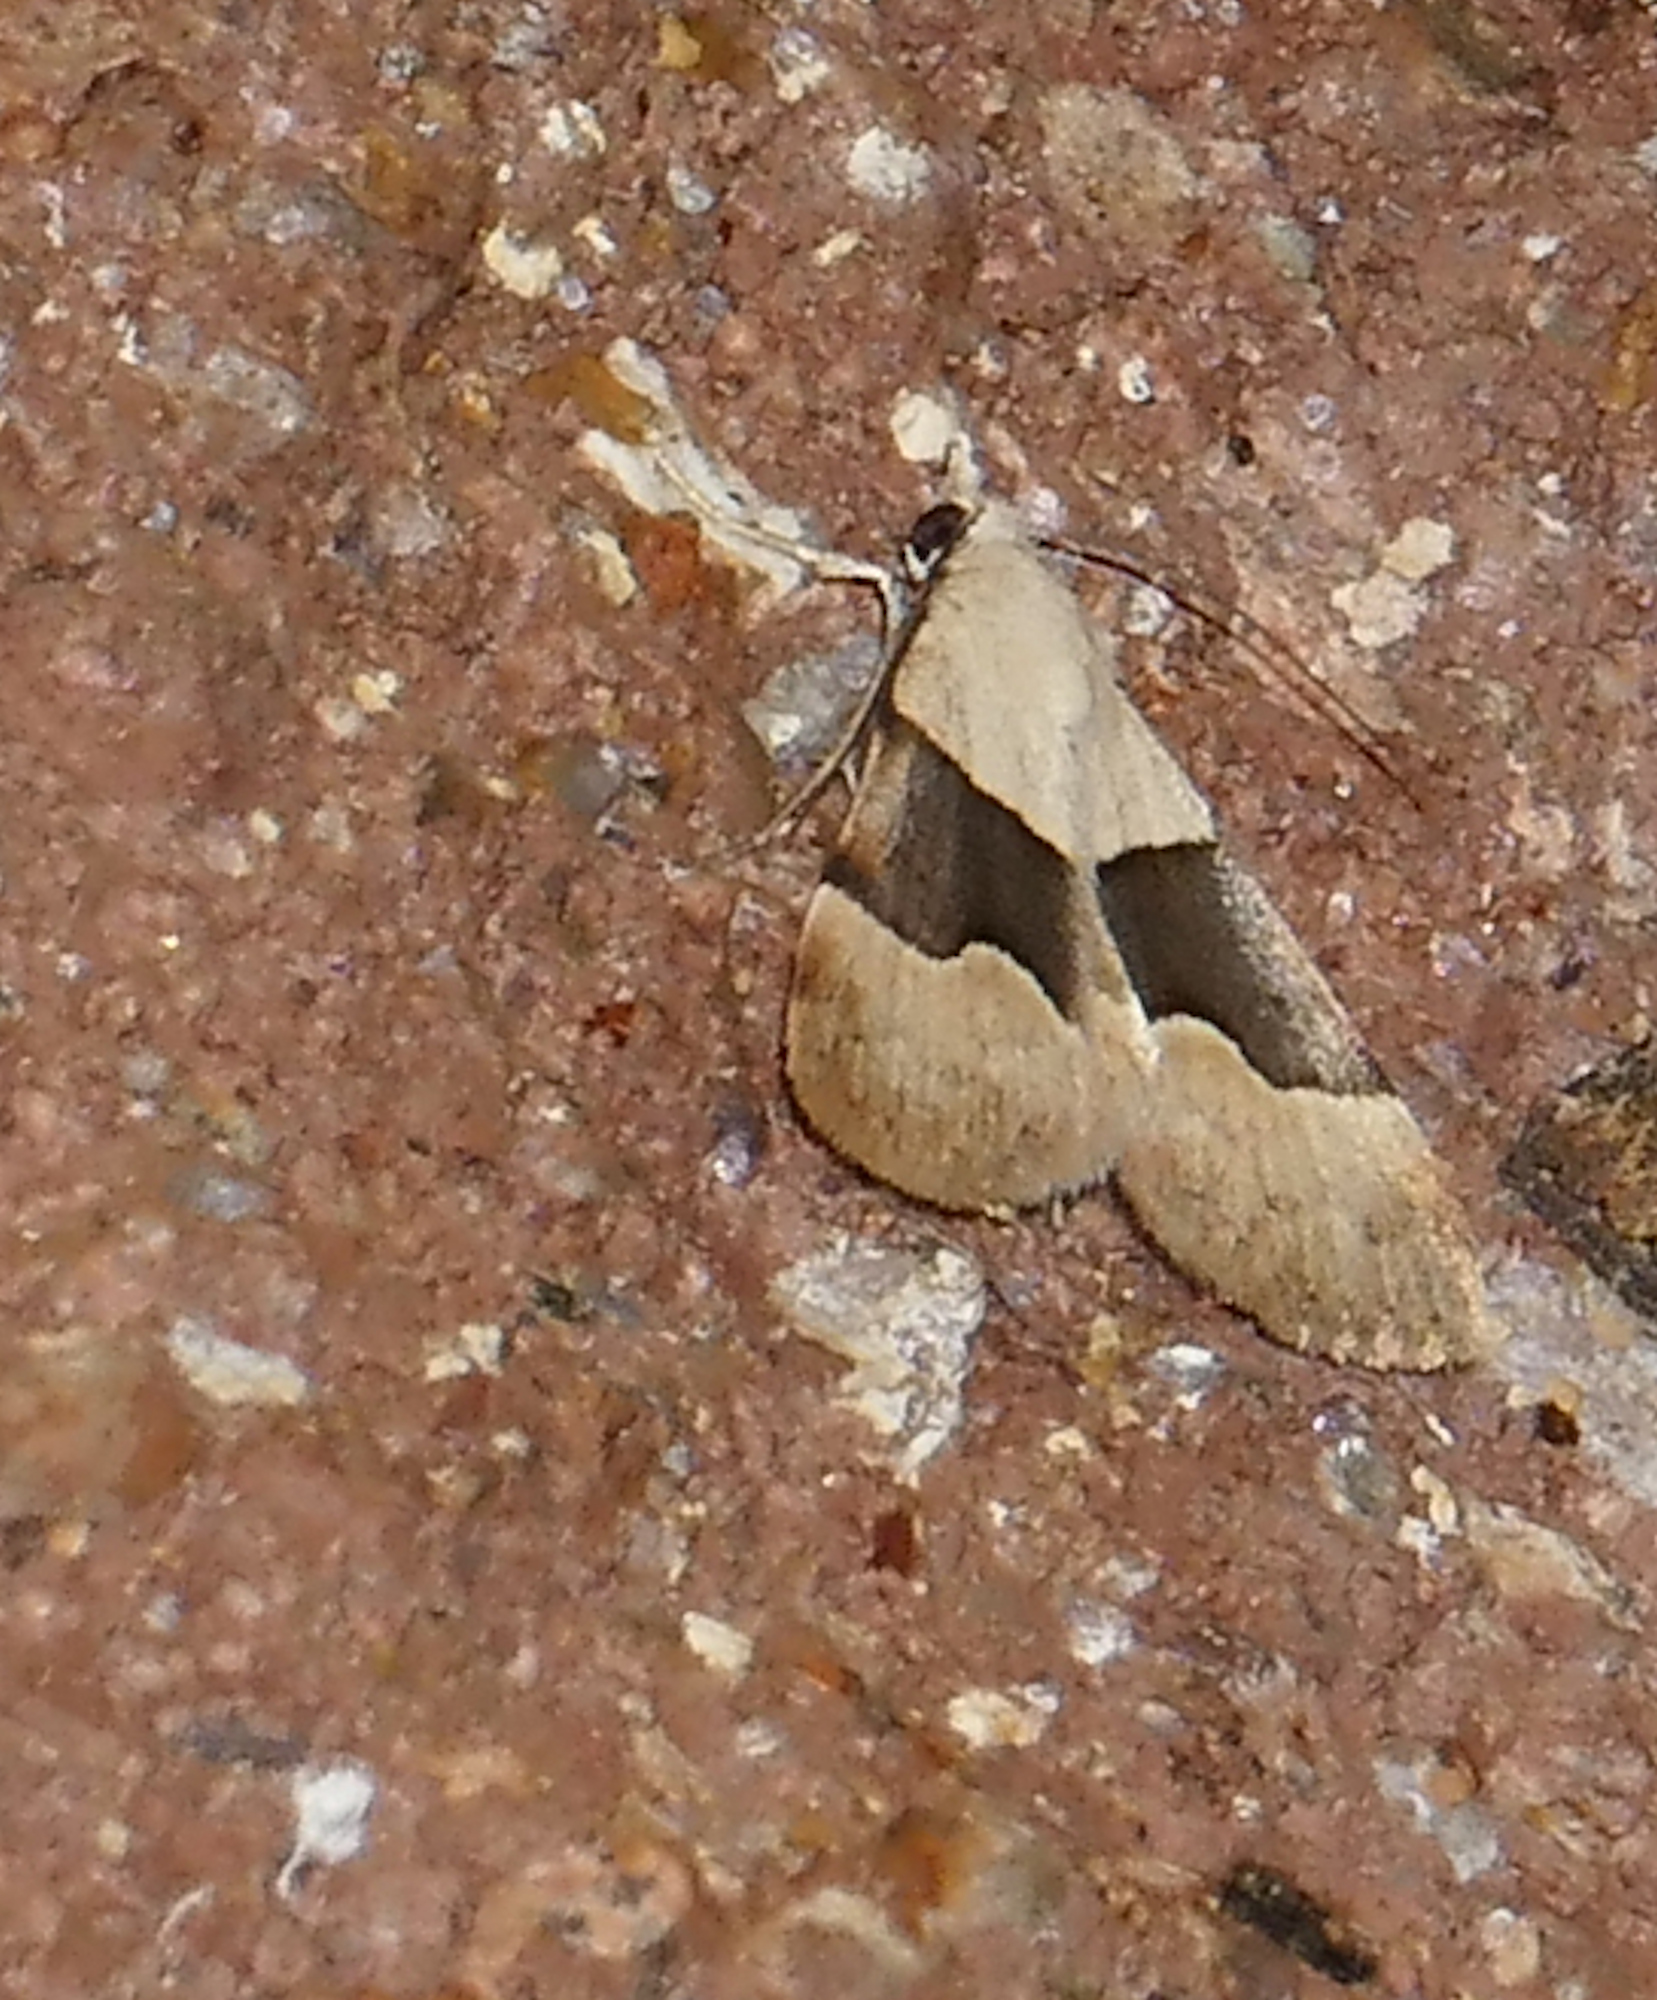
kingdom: Animalia
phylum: Arthropoda
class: Insecta
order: Lepidoptera
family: Erebidae
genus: Hemeroplanis
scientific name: Hemeroplanis incusalis
